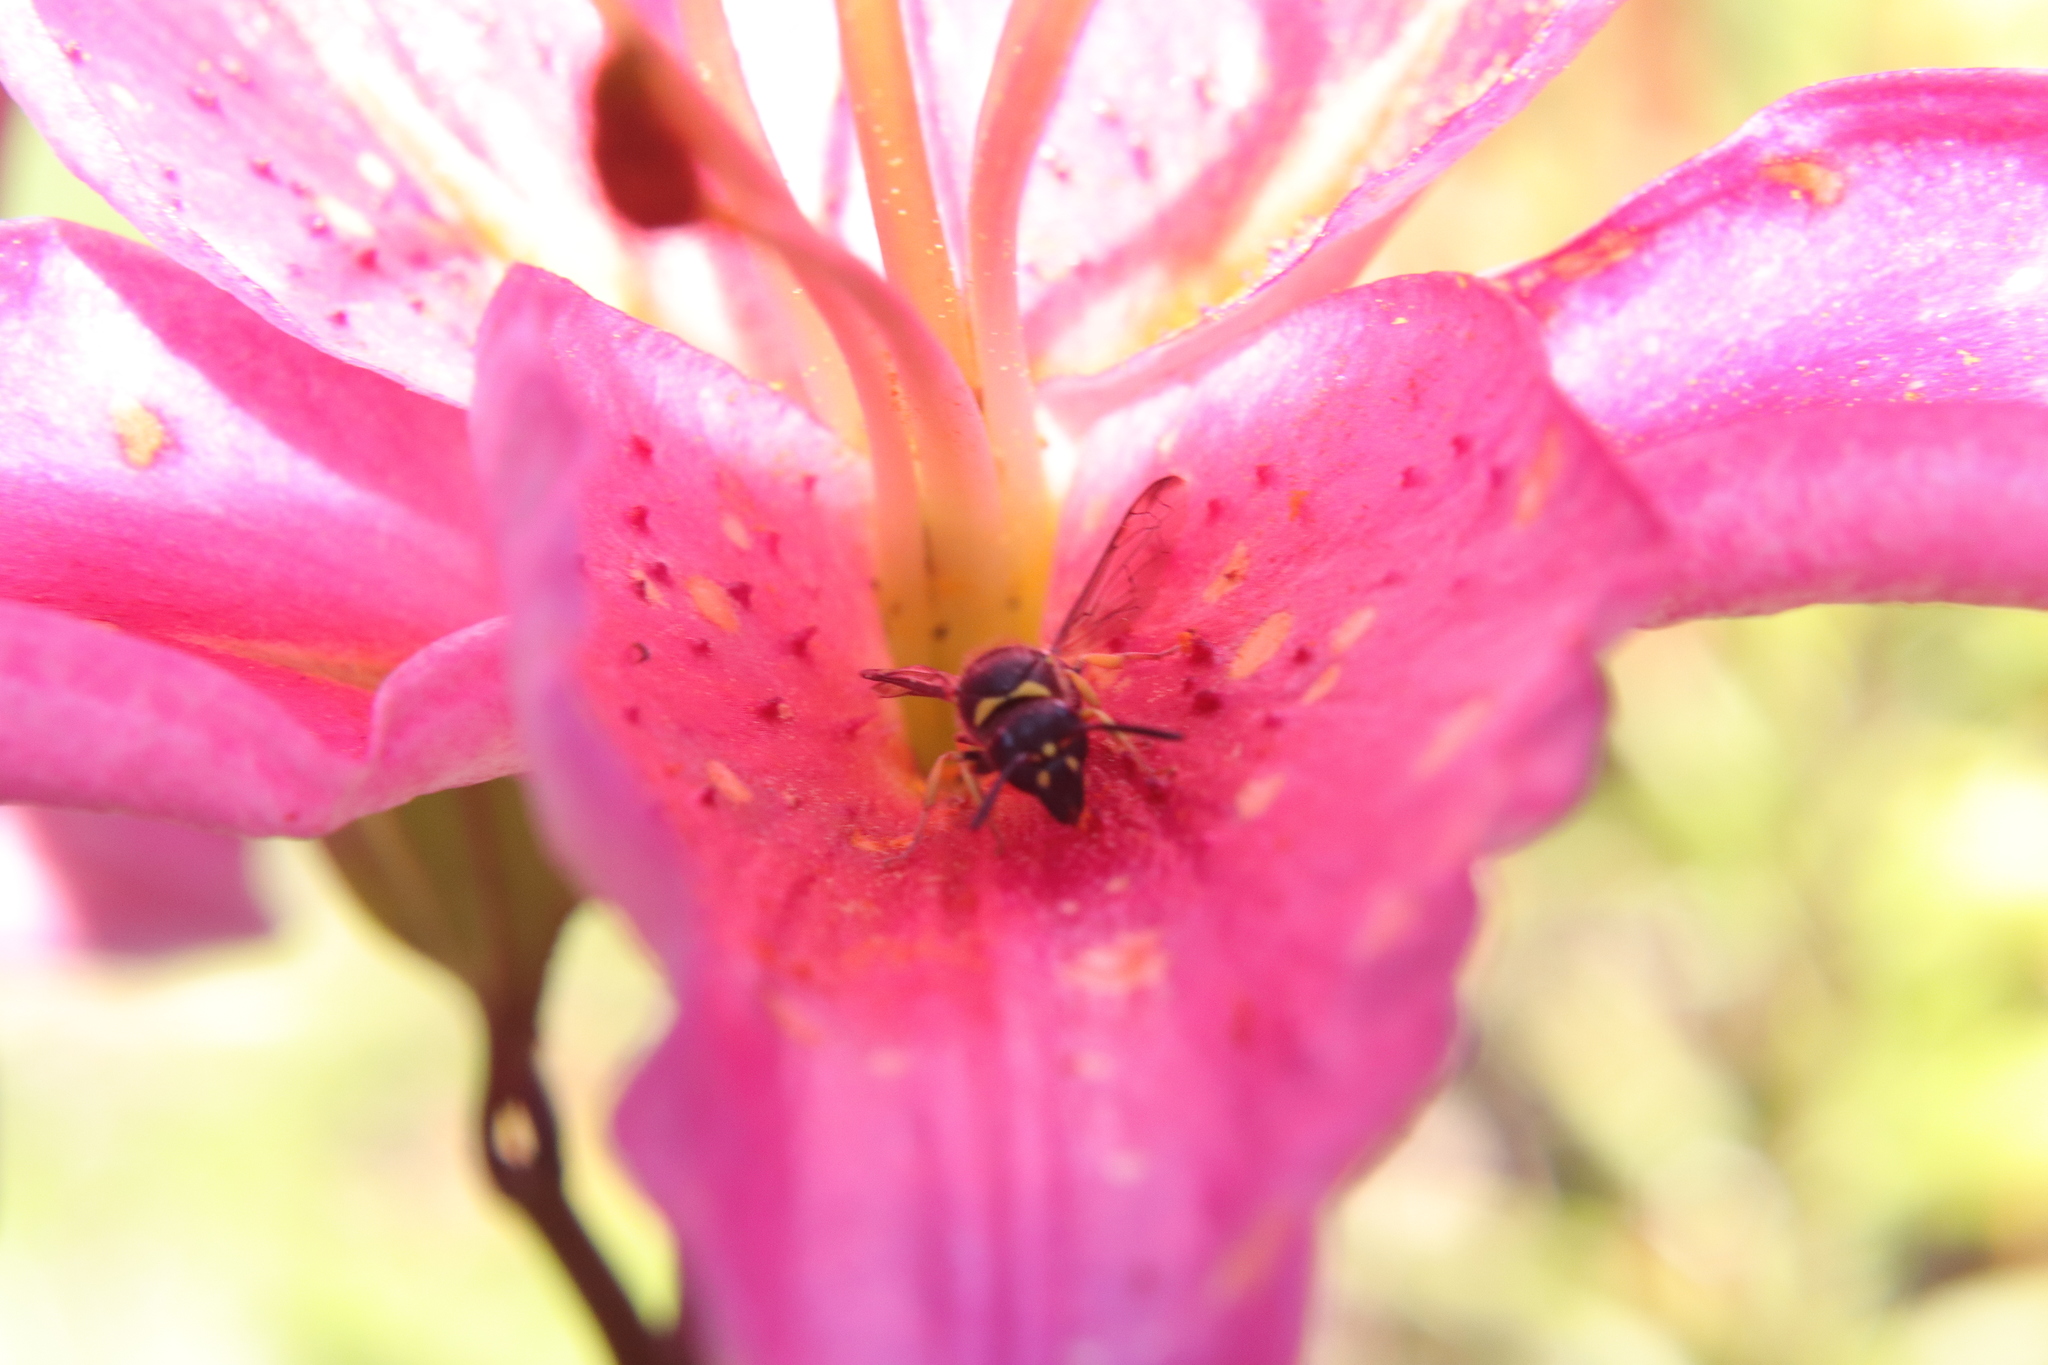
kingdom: Animalia
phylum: Arthropoda
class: Insecta
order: Hymenoptera
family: Vespidae
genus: Ancistrocerus
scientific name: Ancistrocerus gazella
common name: European tube wasp
